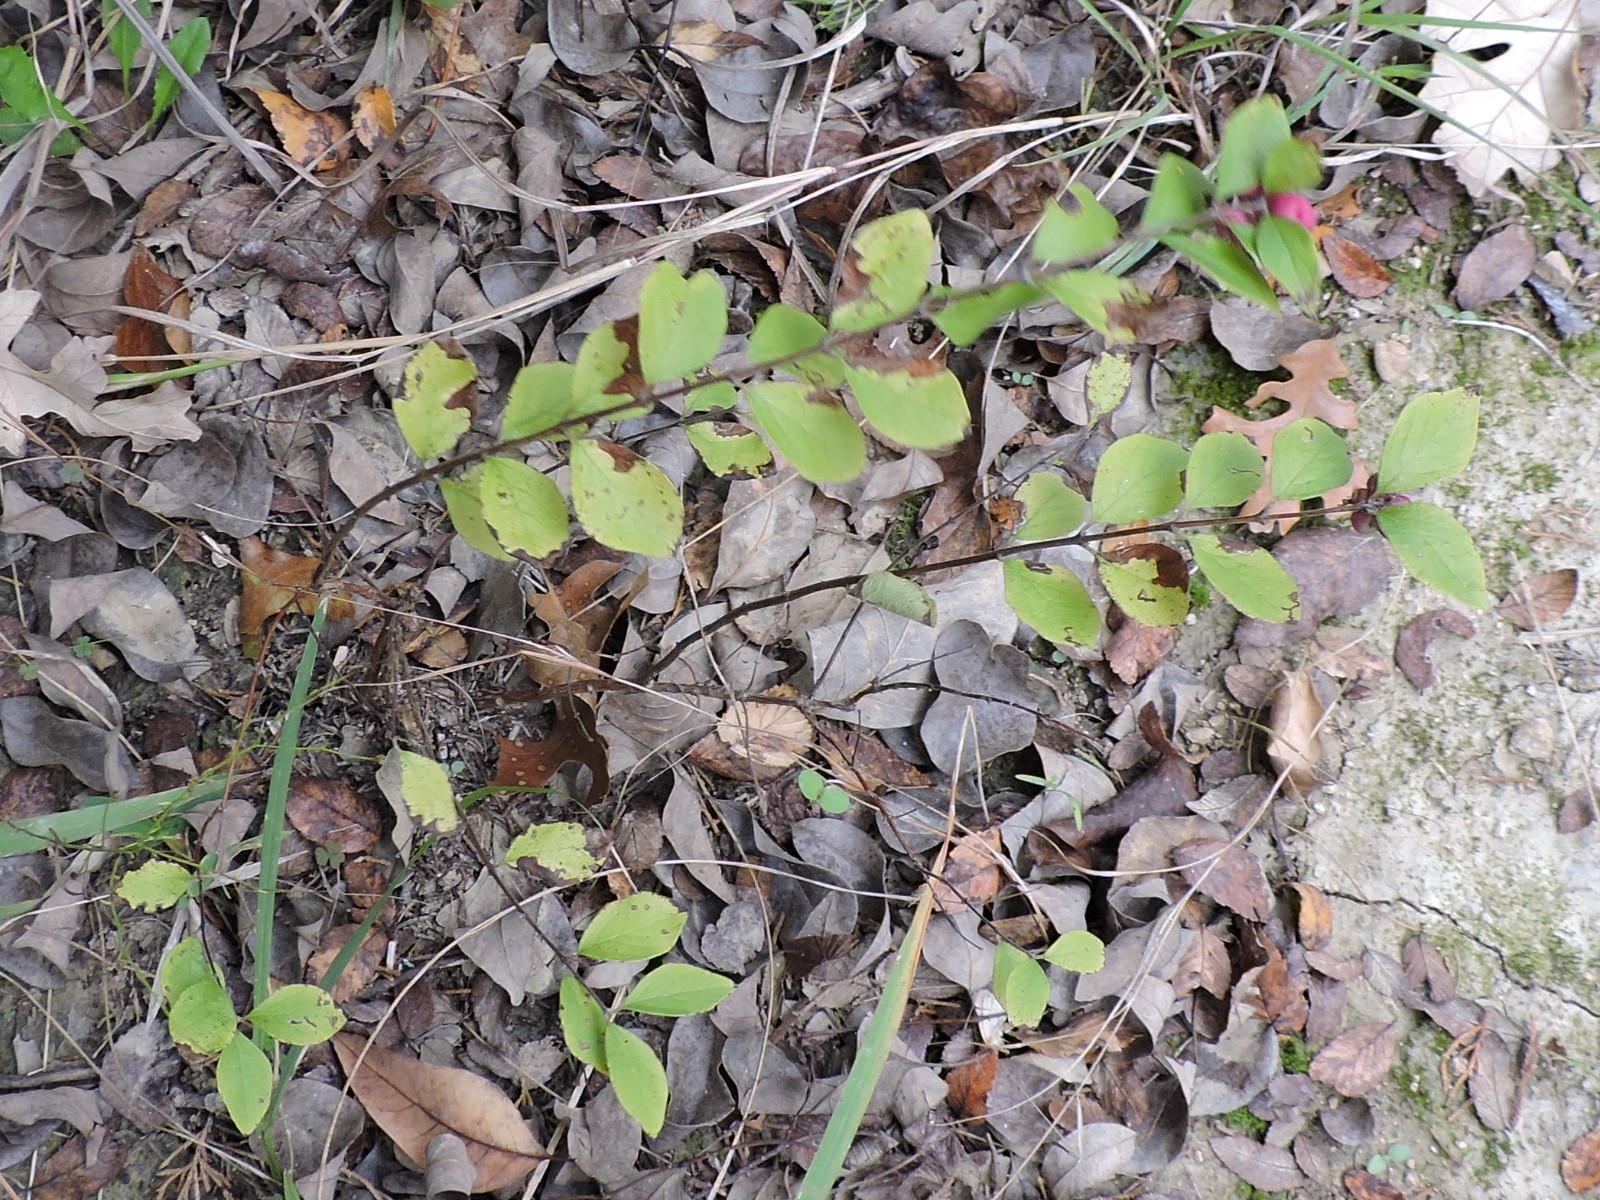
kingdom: Plantae
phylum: Tracheophyta
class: Magnoliopsida
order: Dipsacales
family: Caprifoliaceae
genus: Symphoricarpos
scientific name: Symphoricarpos orbiculatus
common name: Coralberry
